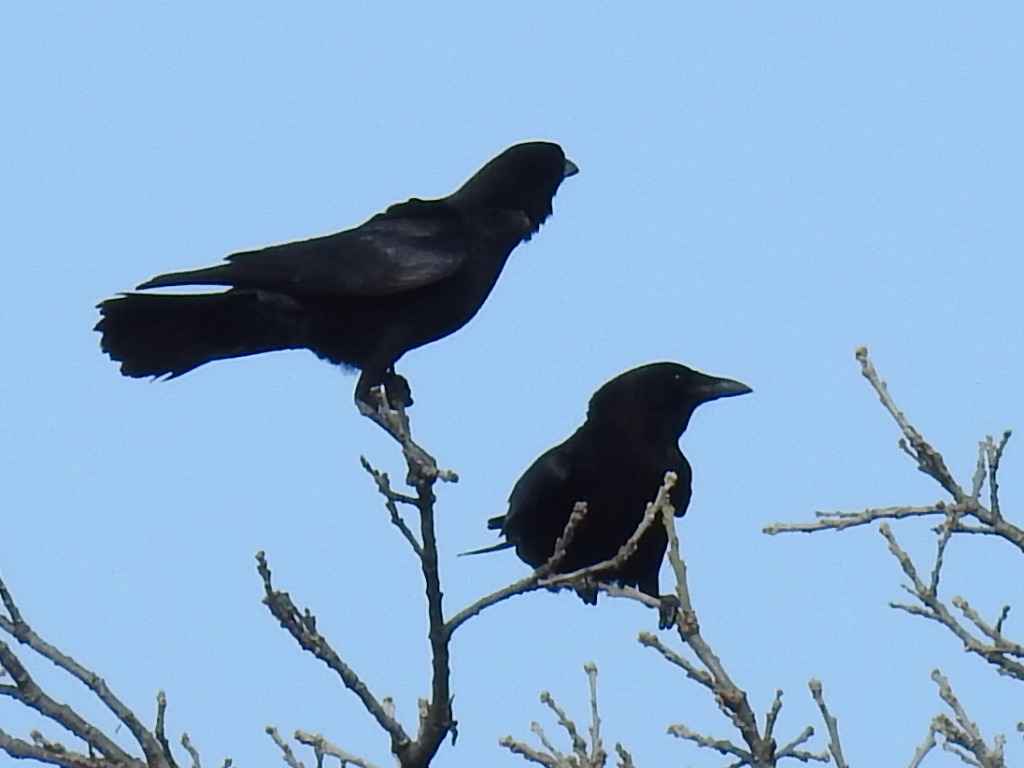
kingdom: Animalia
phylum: Chordata
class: Aves
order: Passeriformes
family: Corvidae
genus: Corvus
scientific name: Corvus brachyrhynchos
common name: American crow
